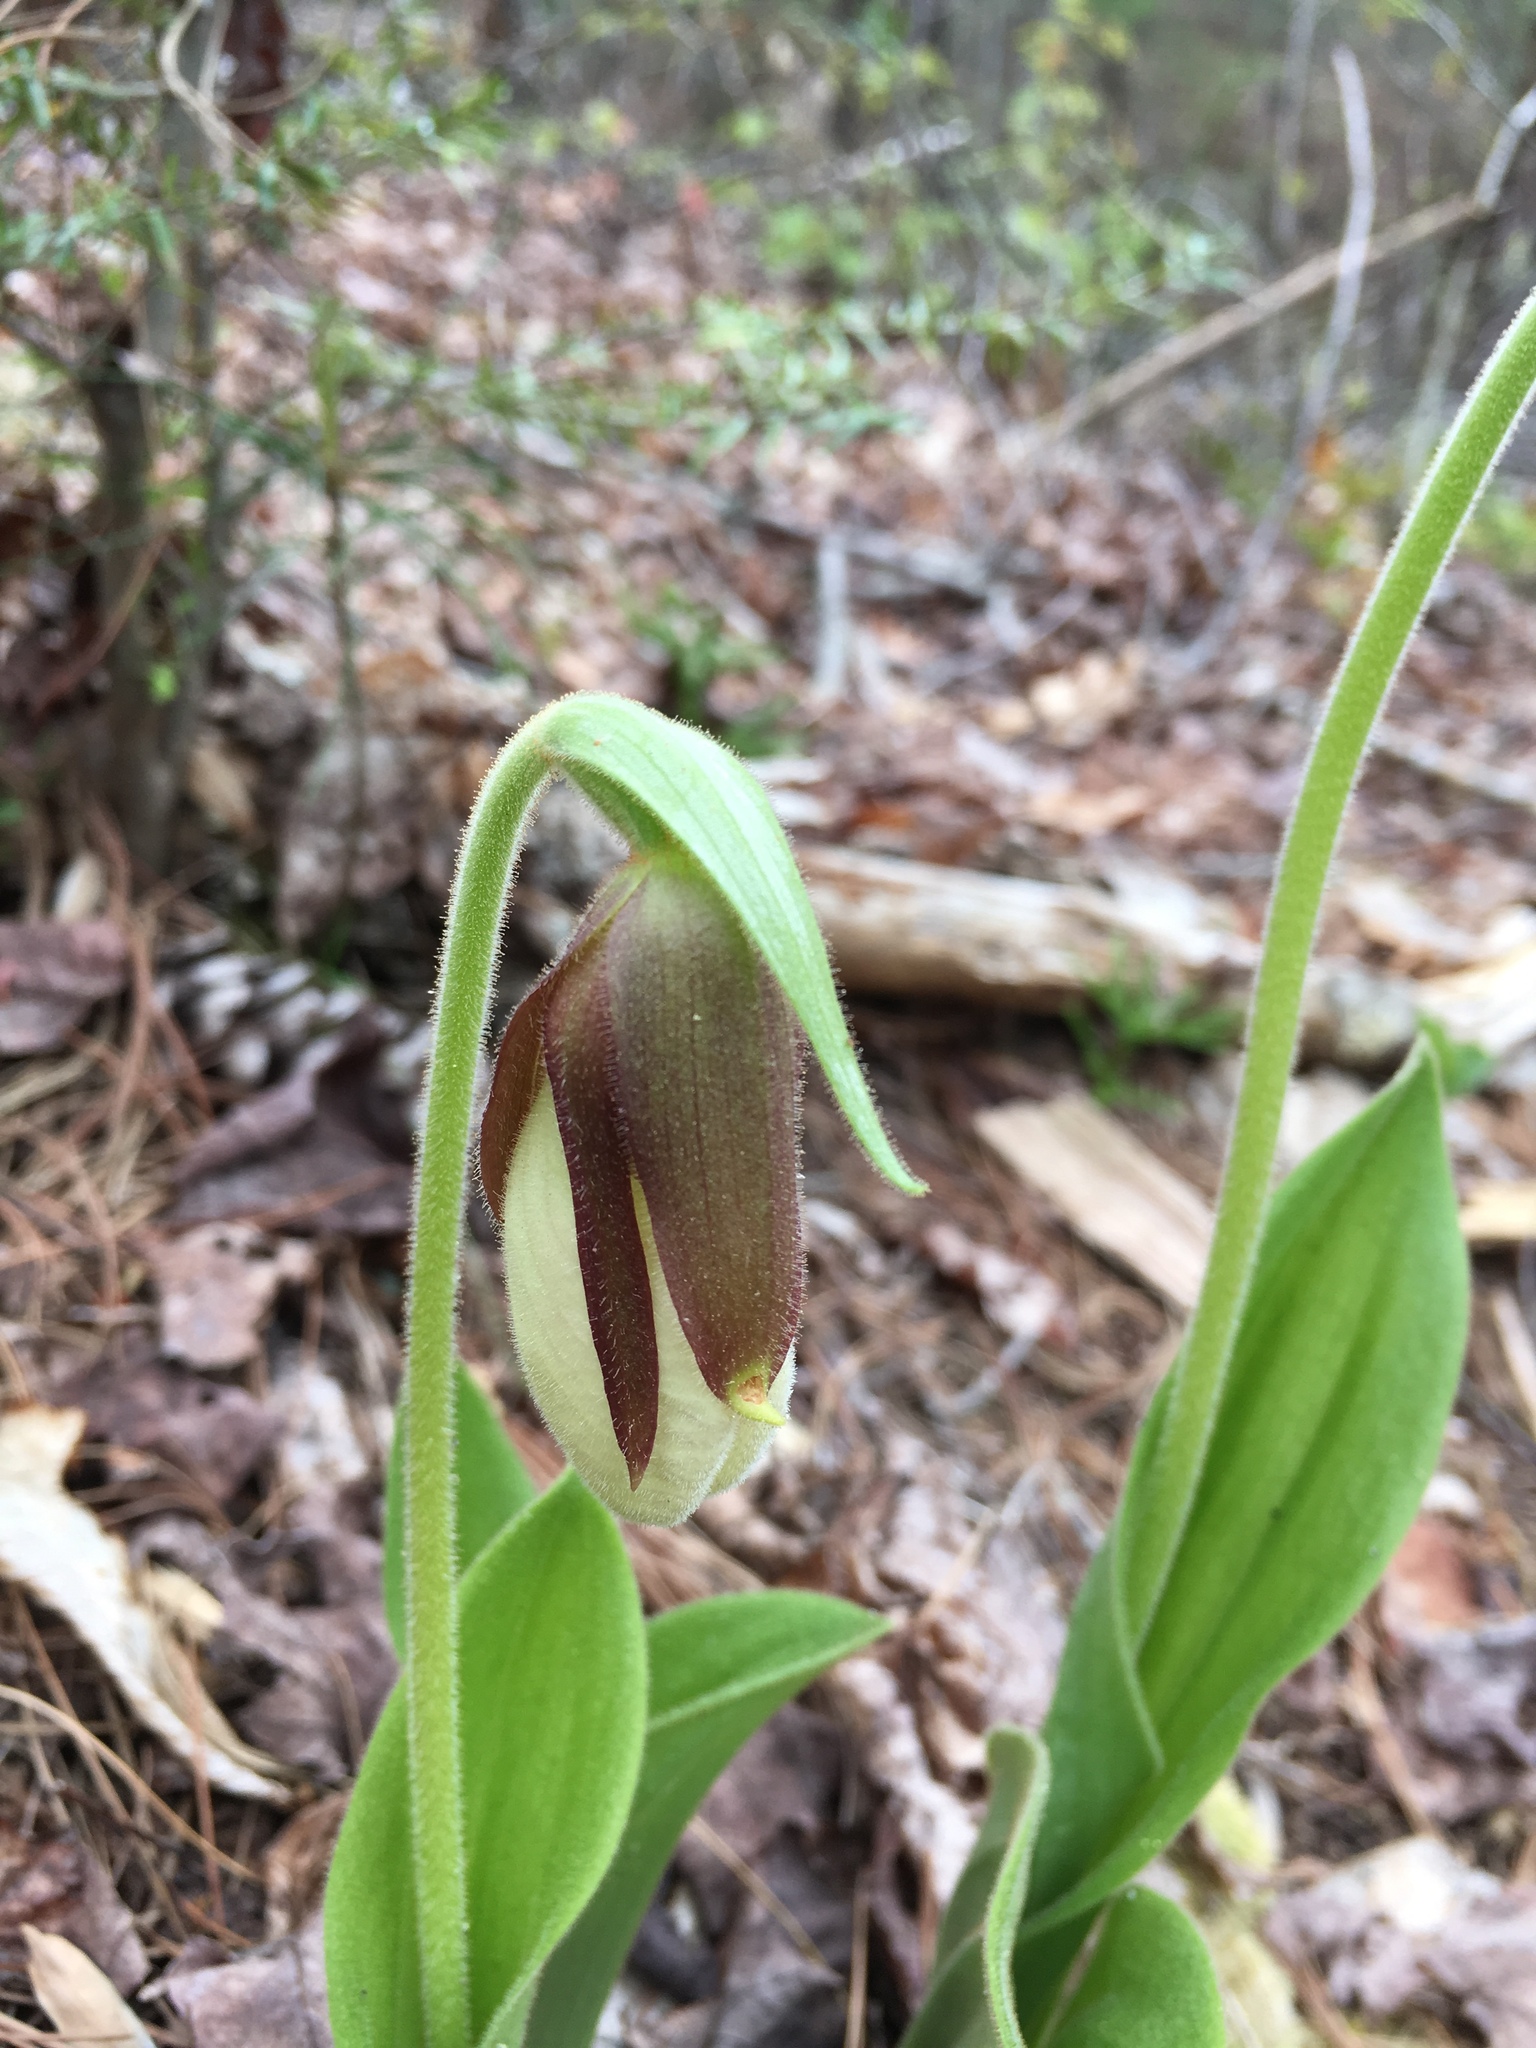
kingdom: Plantae
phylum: Tracheophyta
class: Liliopsida
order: Asparagales
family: Orchidaceae
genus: Cypripedium
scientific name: Cypripedium acaule
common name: Pink lady's-slipper
